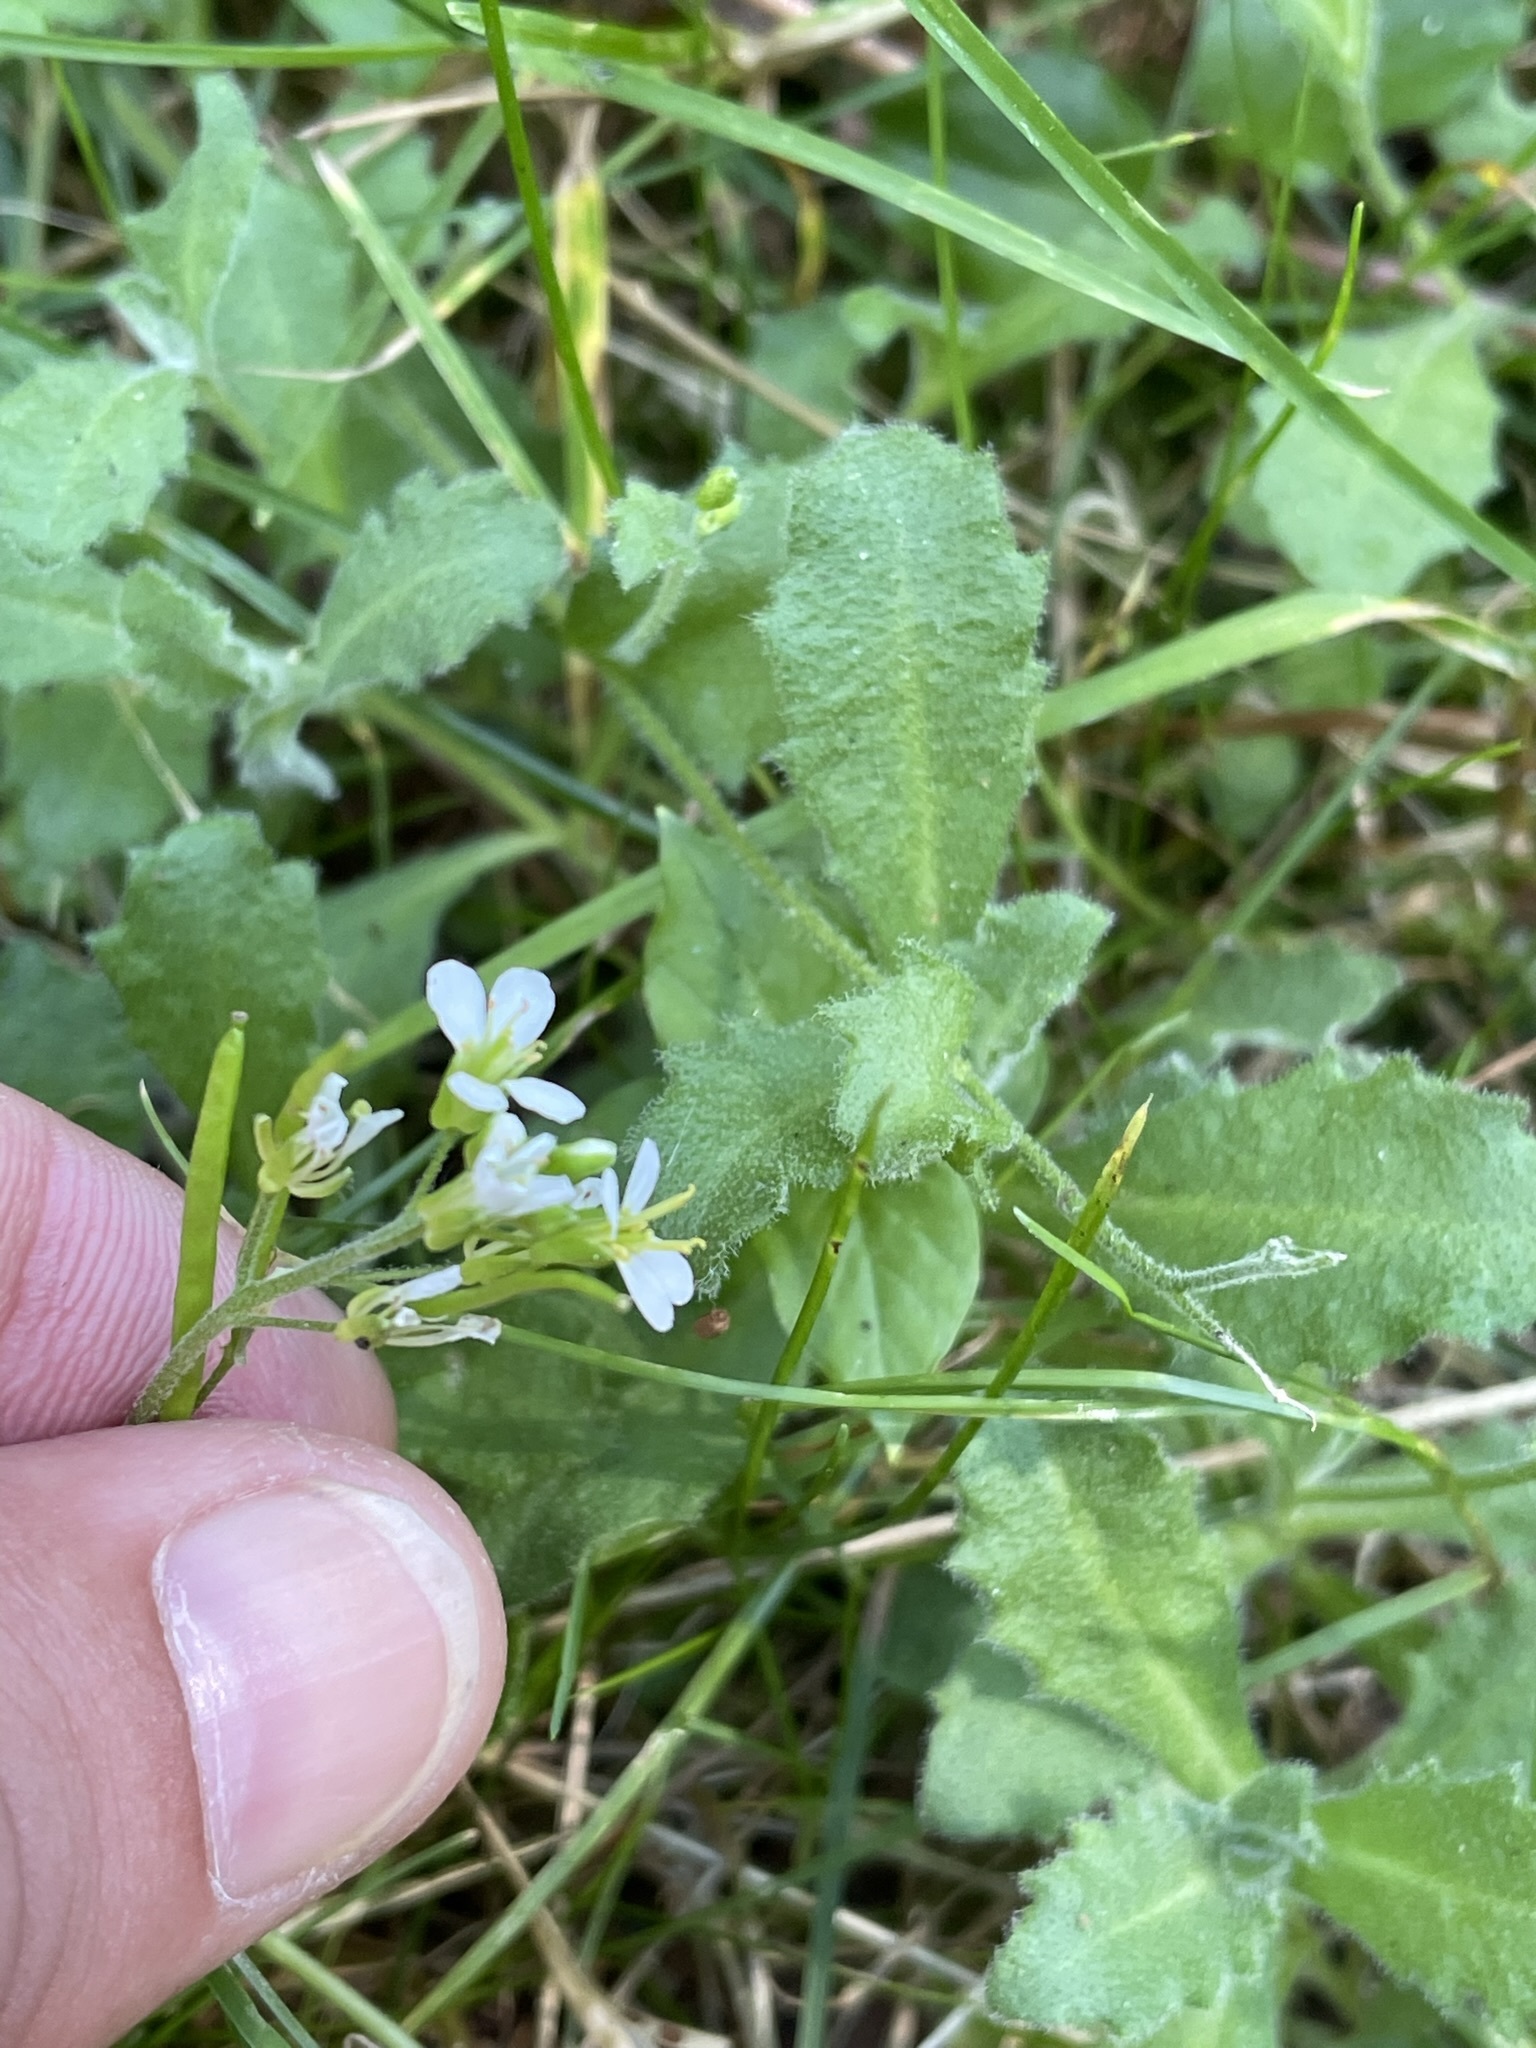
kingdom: Plantae
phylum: Tracheophyta
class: Magnoliopsida
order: Brassicales
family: Brassicaceae
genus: Arabis
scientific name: Arabis alpina
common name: Alpine rock-cress
